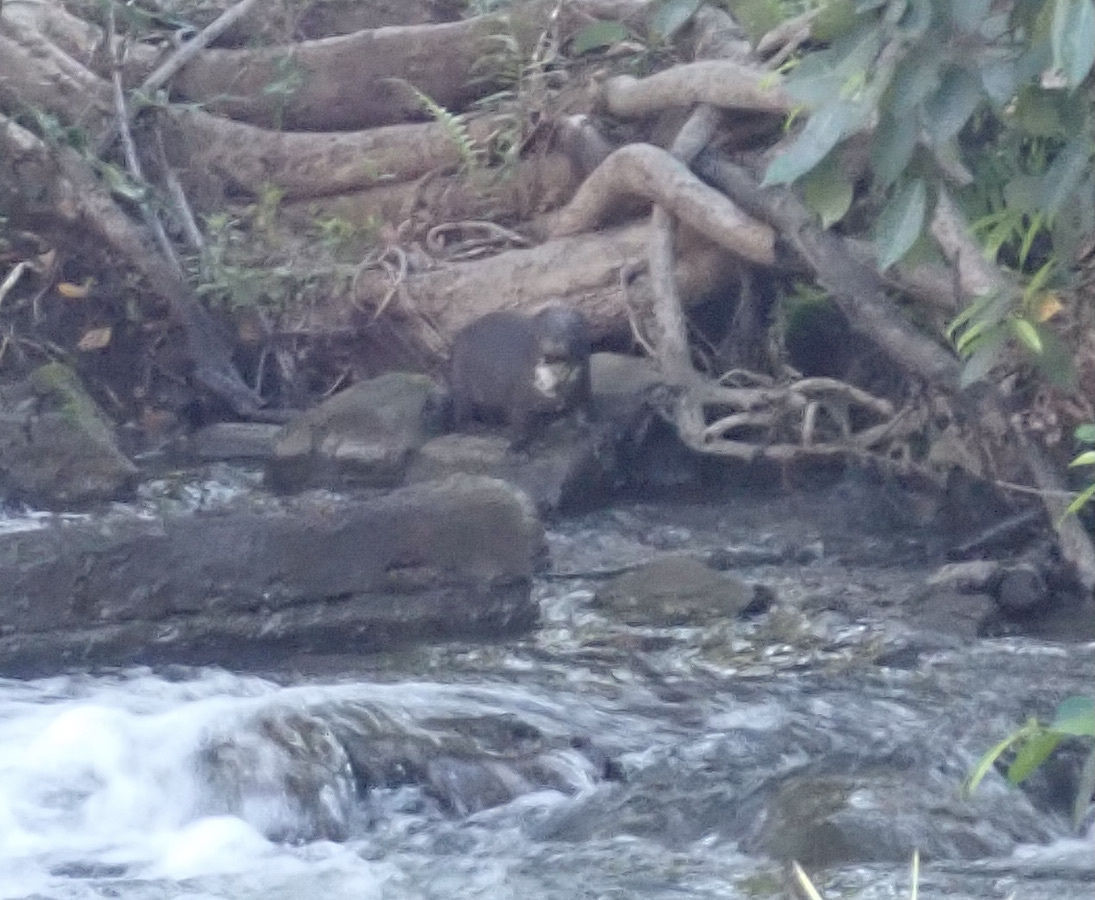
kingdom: Animalia
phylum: Chordata
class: Mammalia
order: Carnivora
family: Mustelidae
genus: Hydrictis
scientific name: Hydrictis maculicollis
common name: Spotted-necked otter
